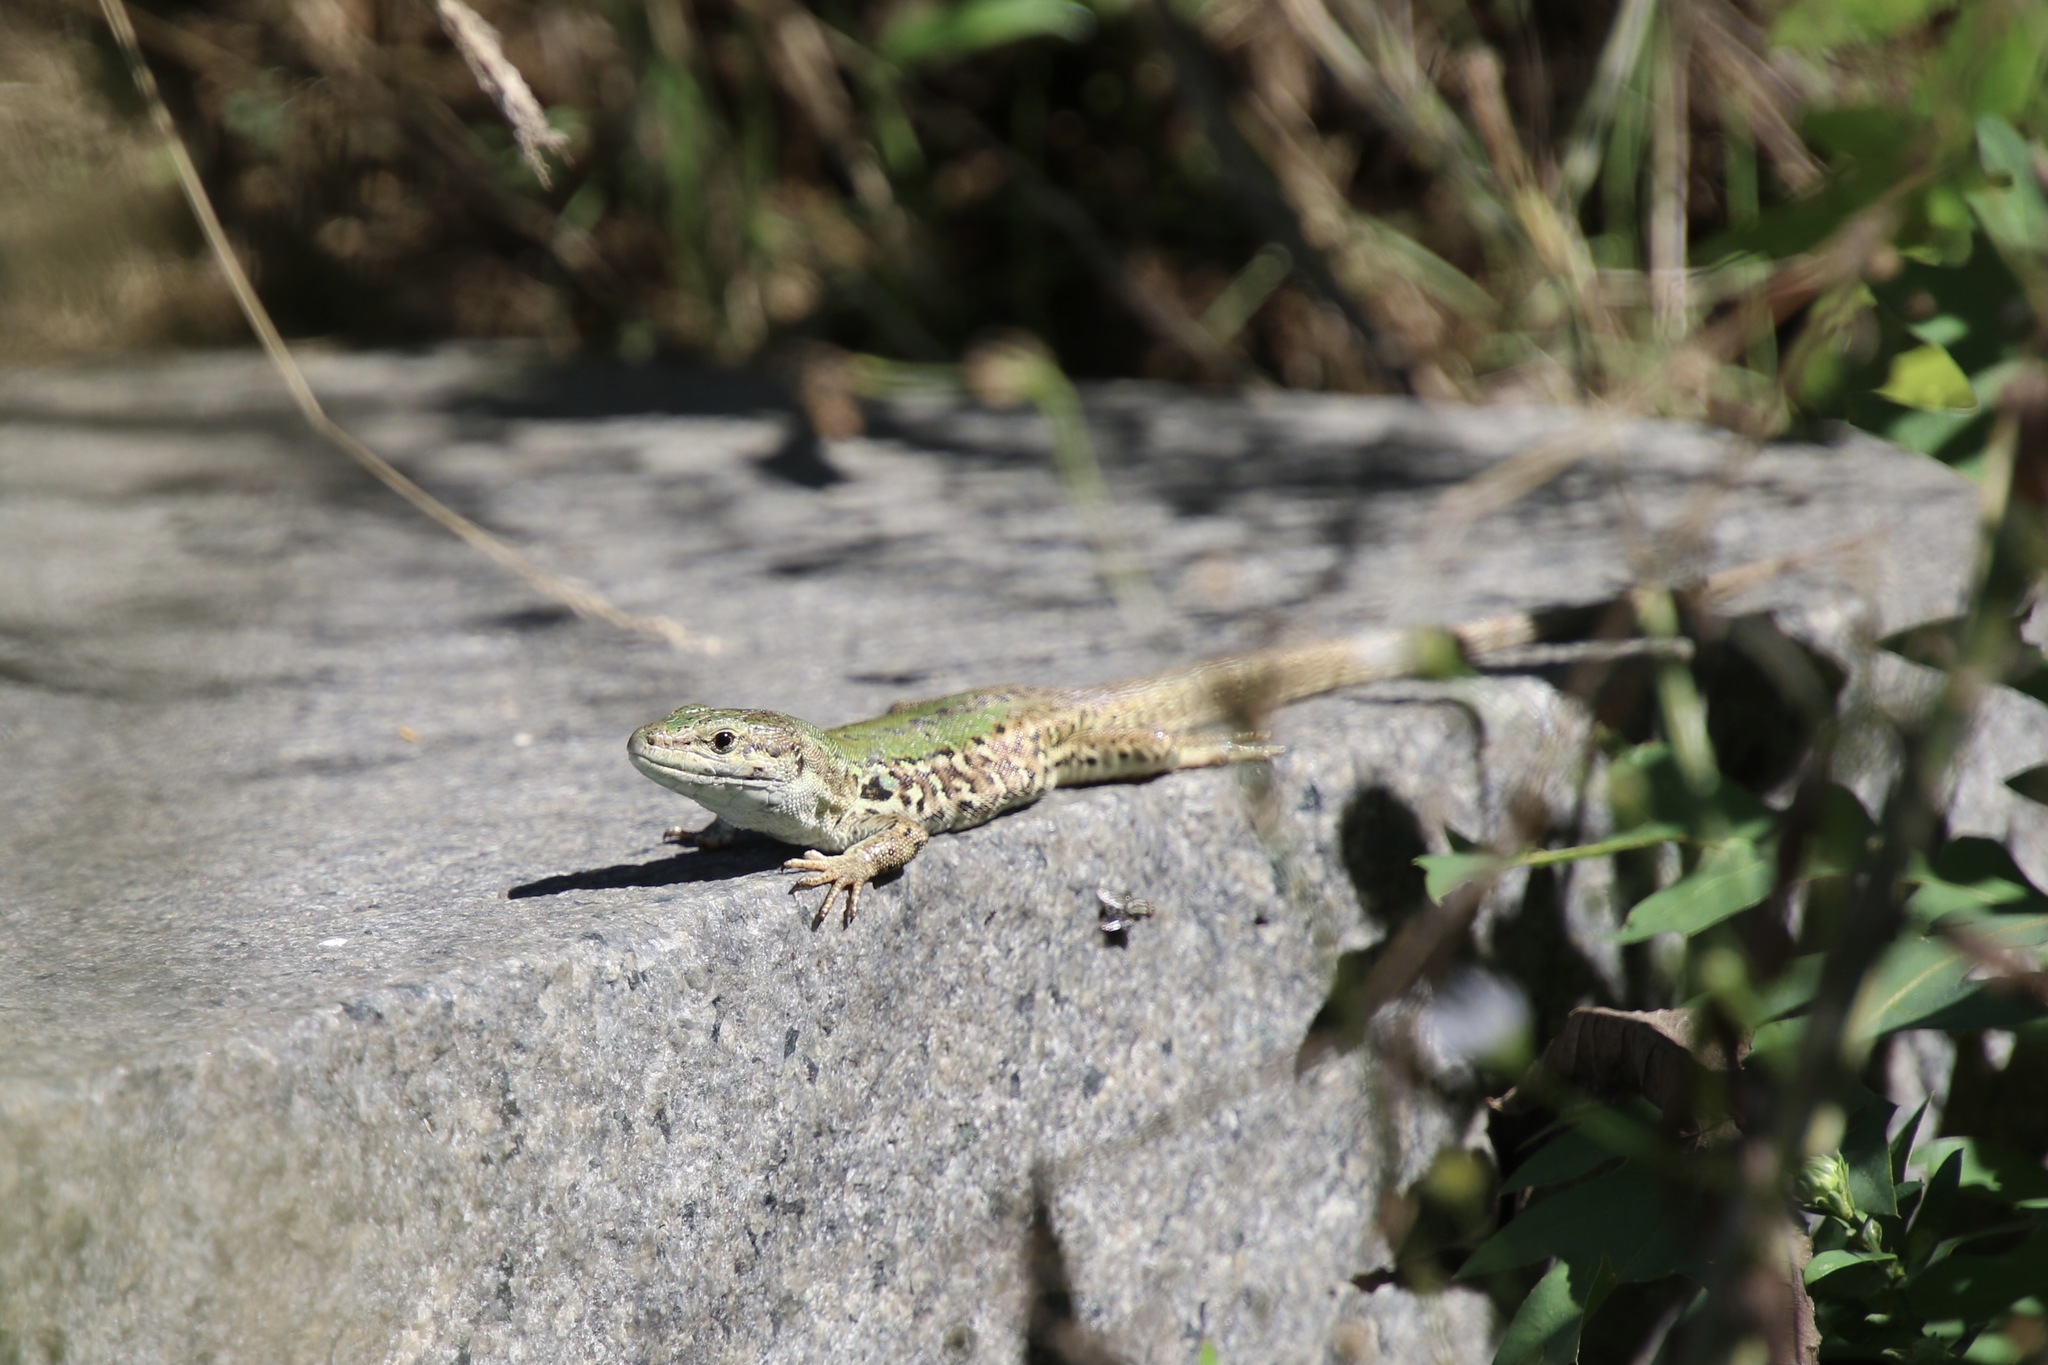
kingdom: Animalia
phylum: Chordata
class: Squamata
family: Lacertidae
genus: Podarcis
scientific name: Podarcis siculus
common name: Italian wall lizard
